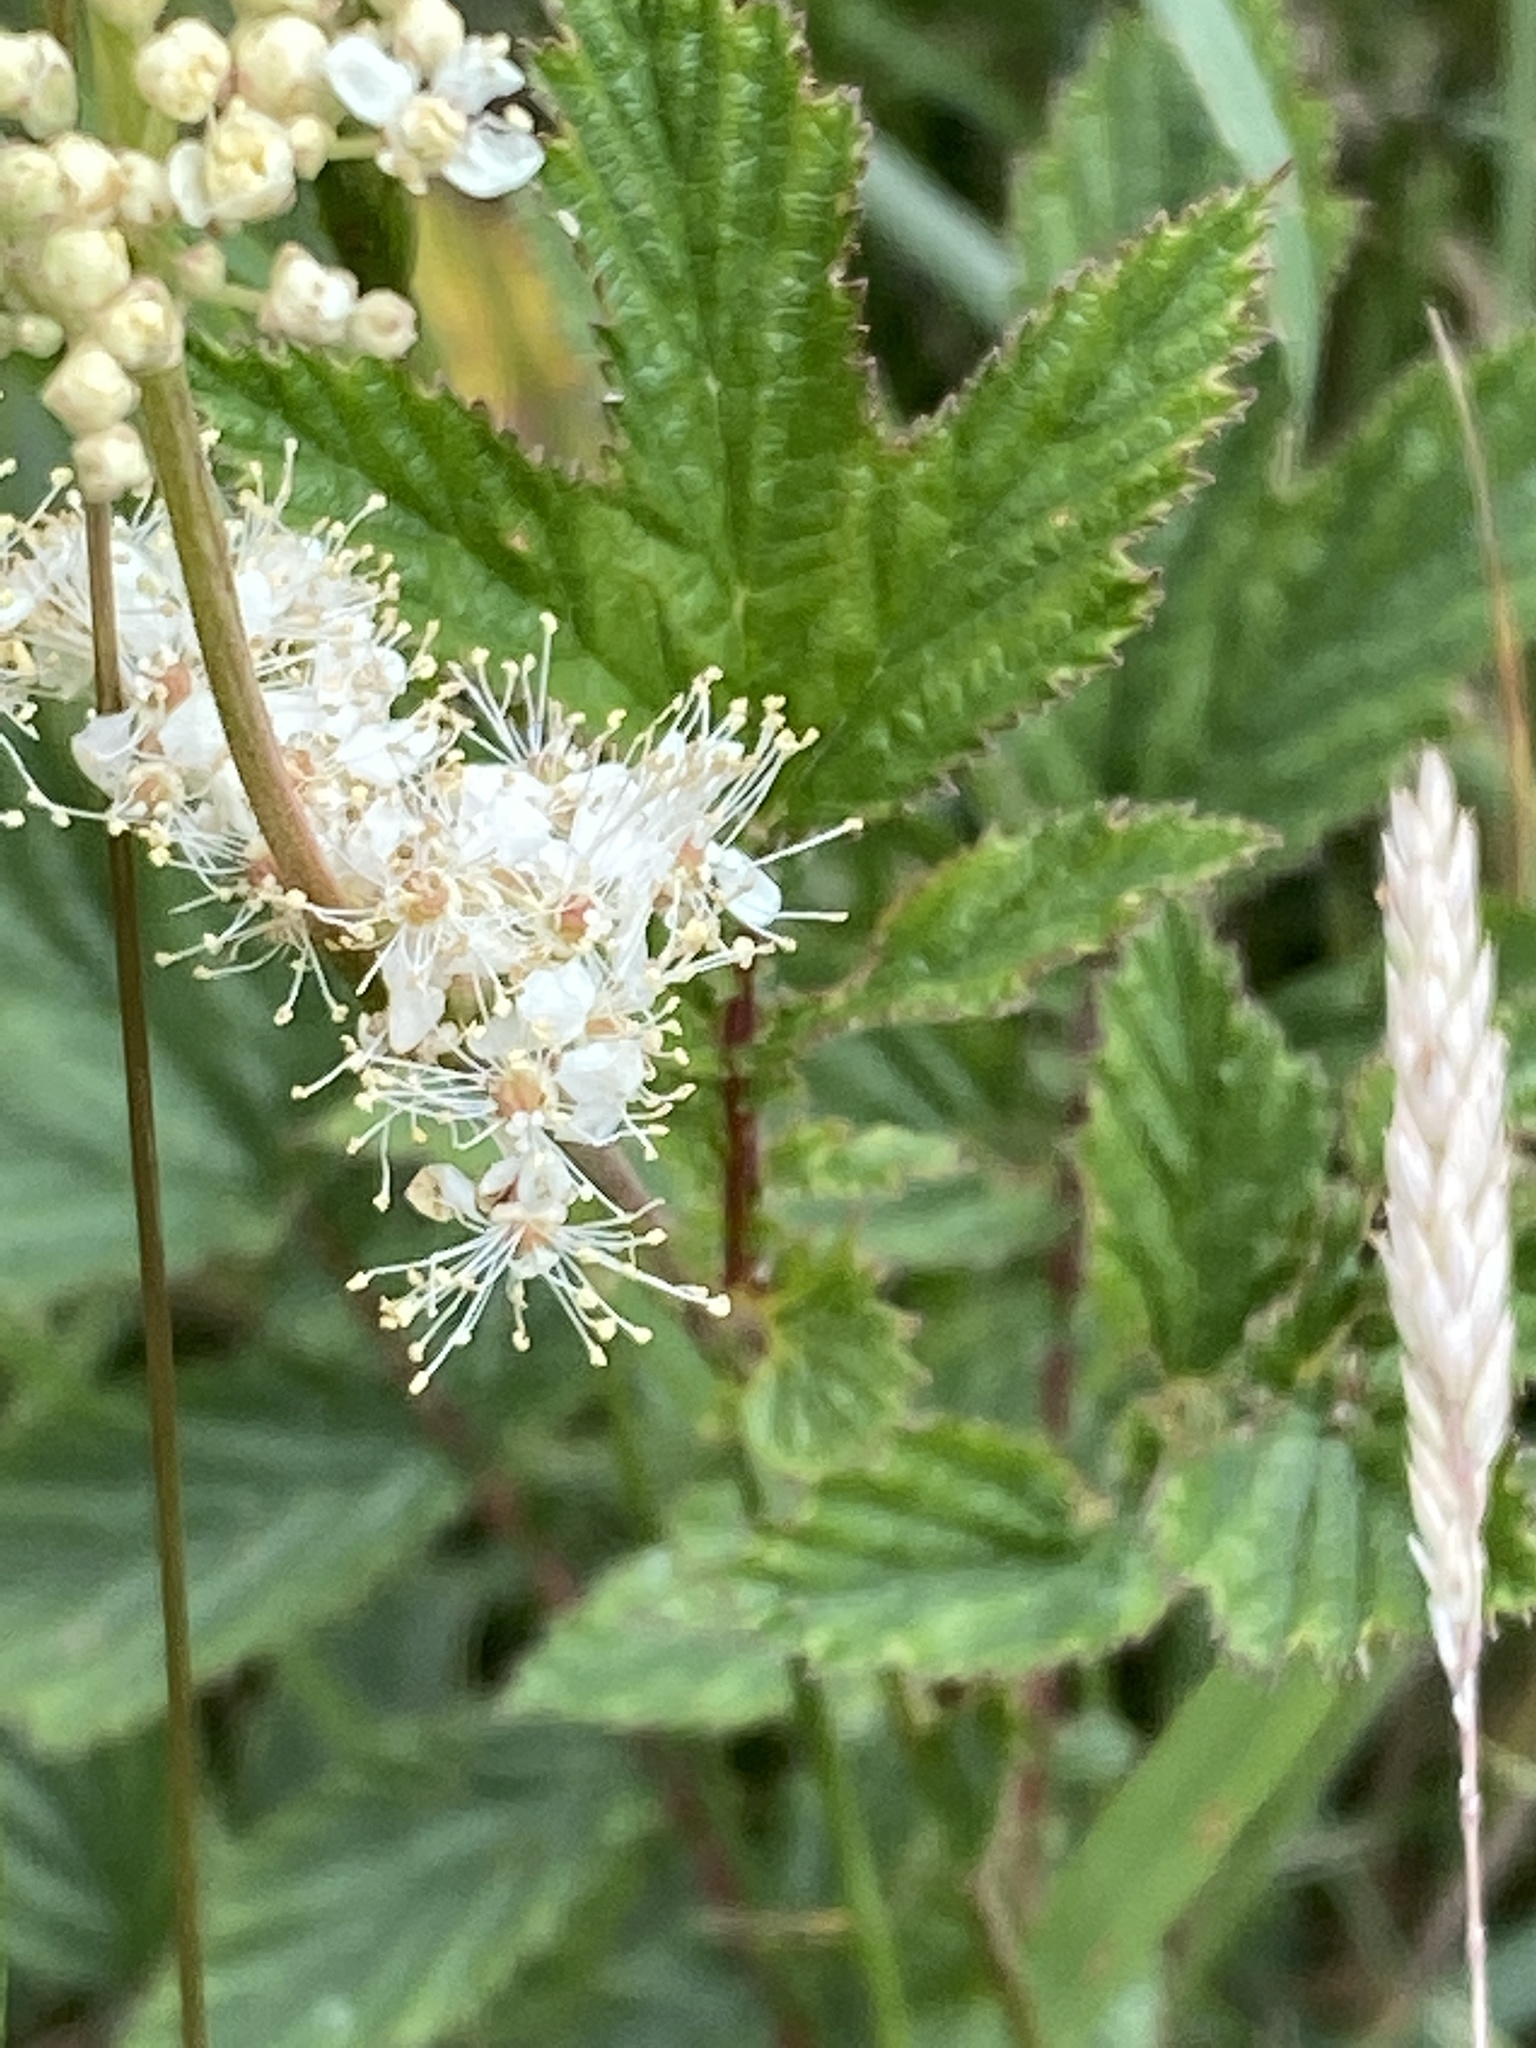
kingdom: Plantae
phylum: Tracheophyta
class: Magnoliopsida
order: Rosales
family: Rosaceae
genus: Filipendula
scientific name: Filipendula ulmaria
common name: Meadowsweet
